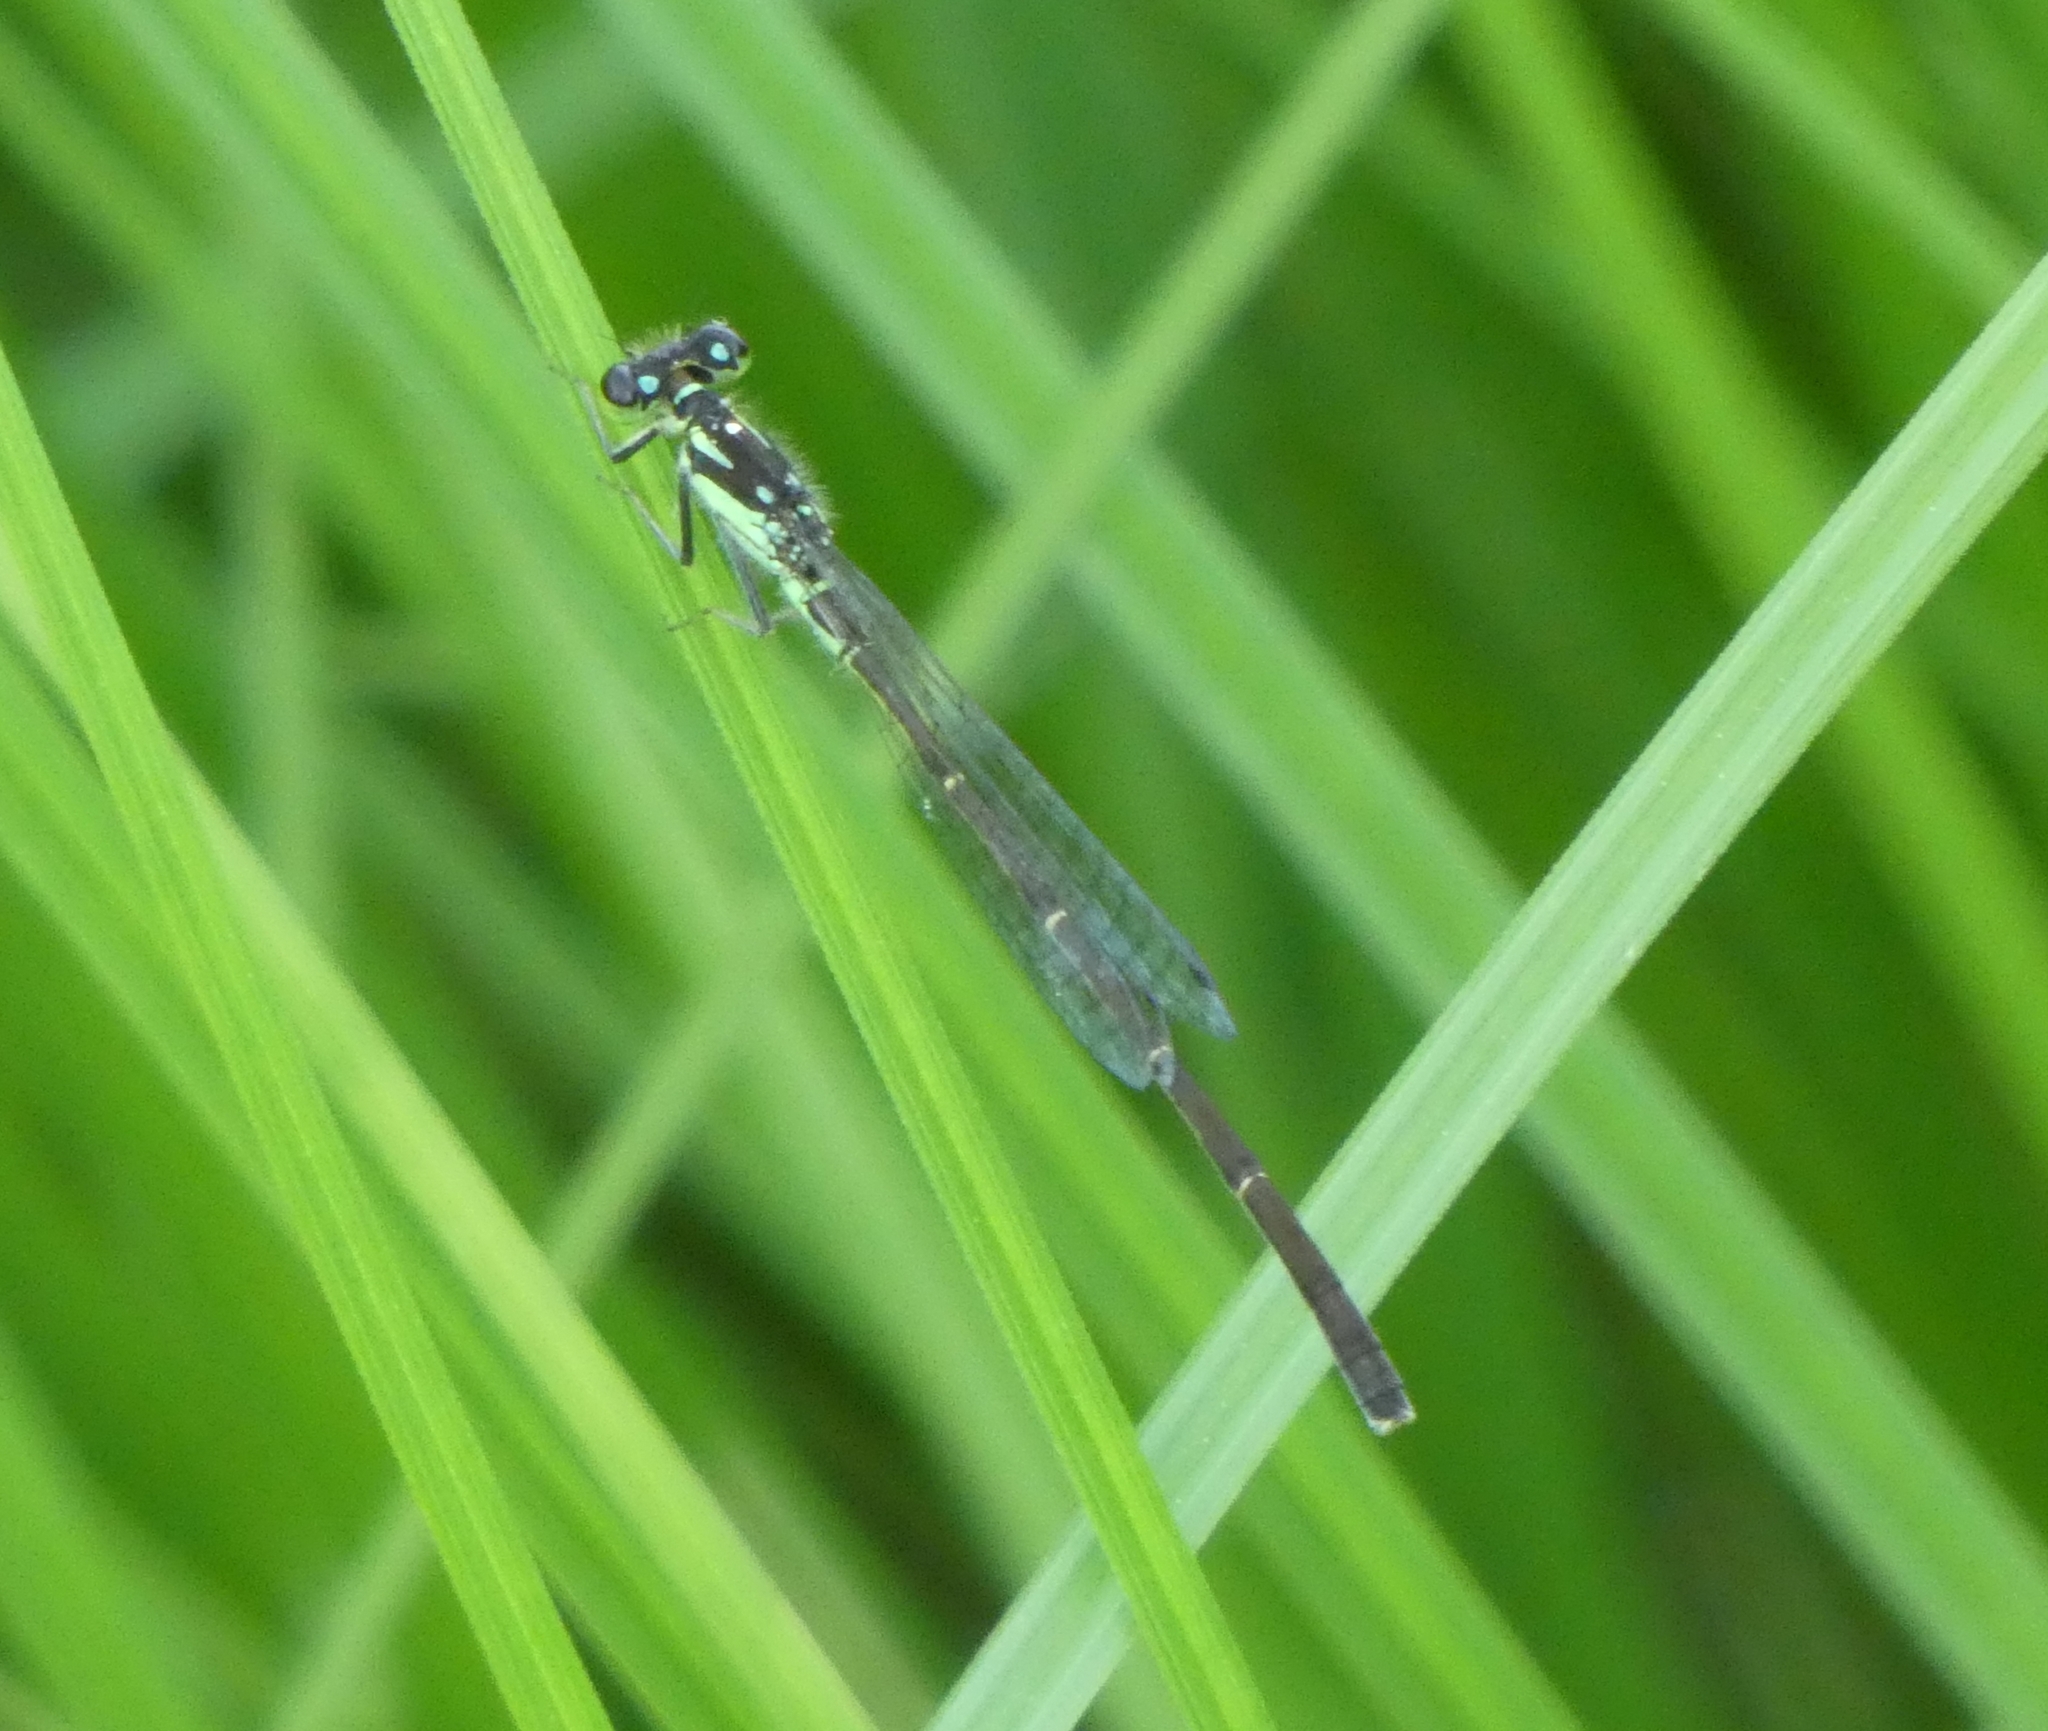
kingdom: Animalia
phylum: Arthropoda
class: Insecta
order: Odonata
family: Coenagrionidae
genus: Ischnura
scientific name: Ischnura posita
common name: Fragile forktail
